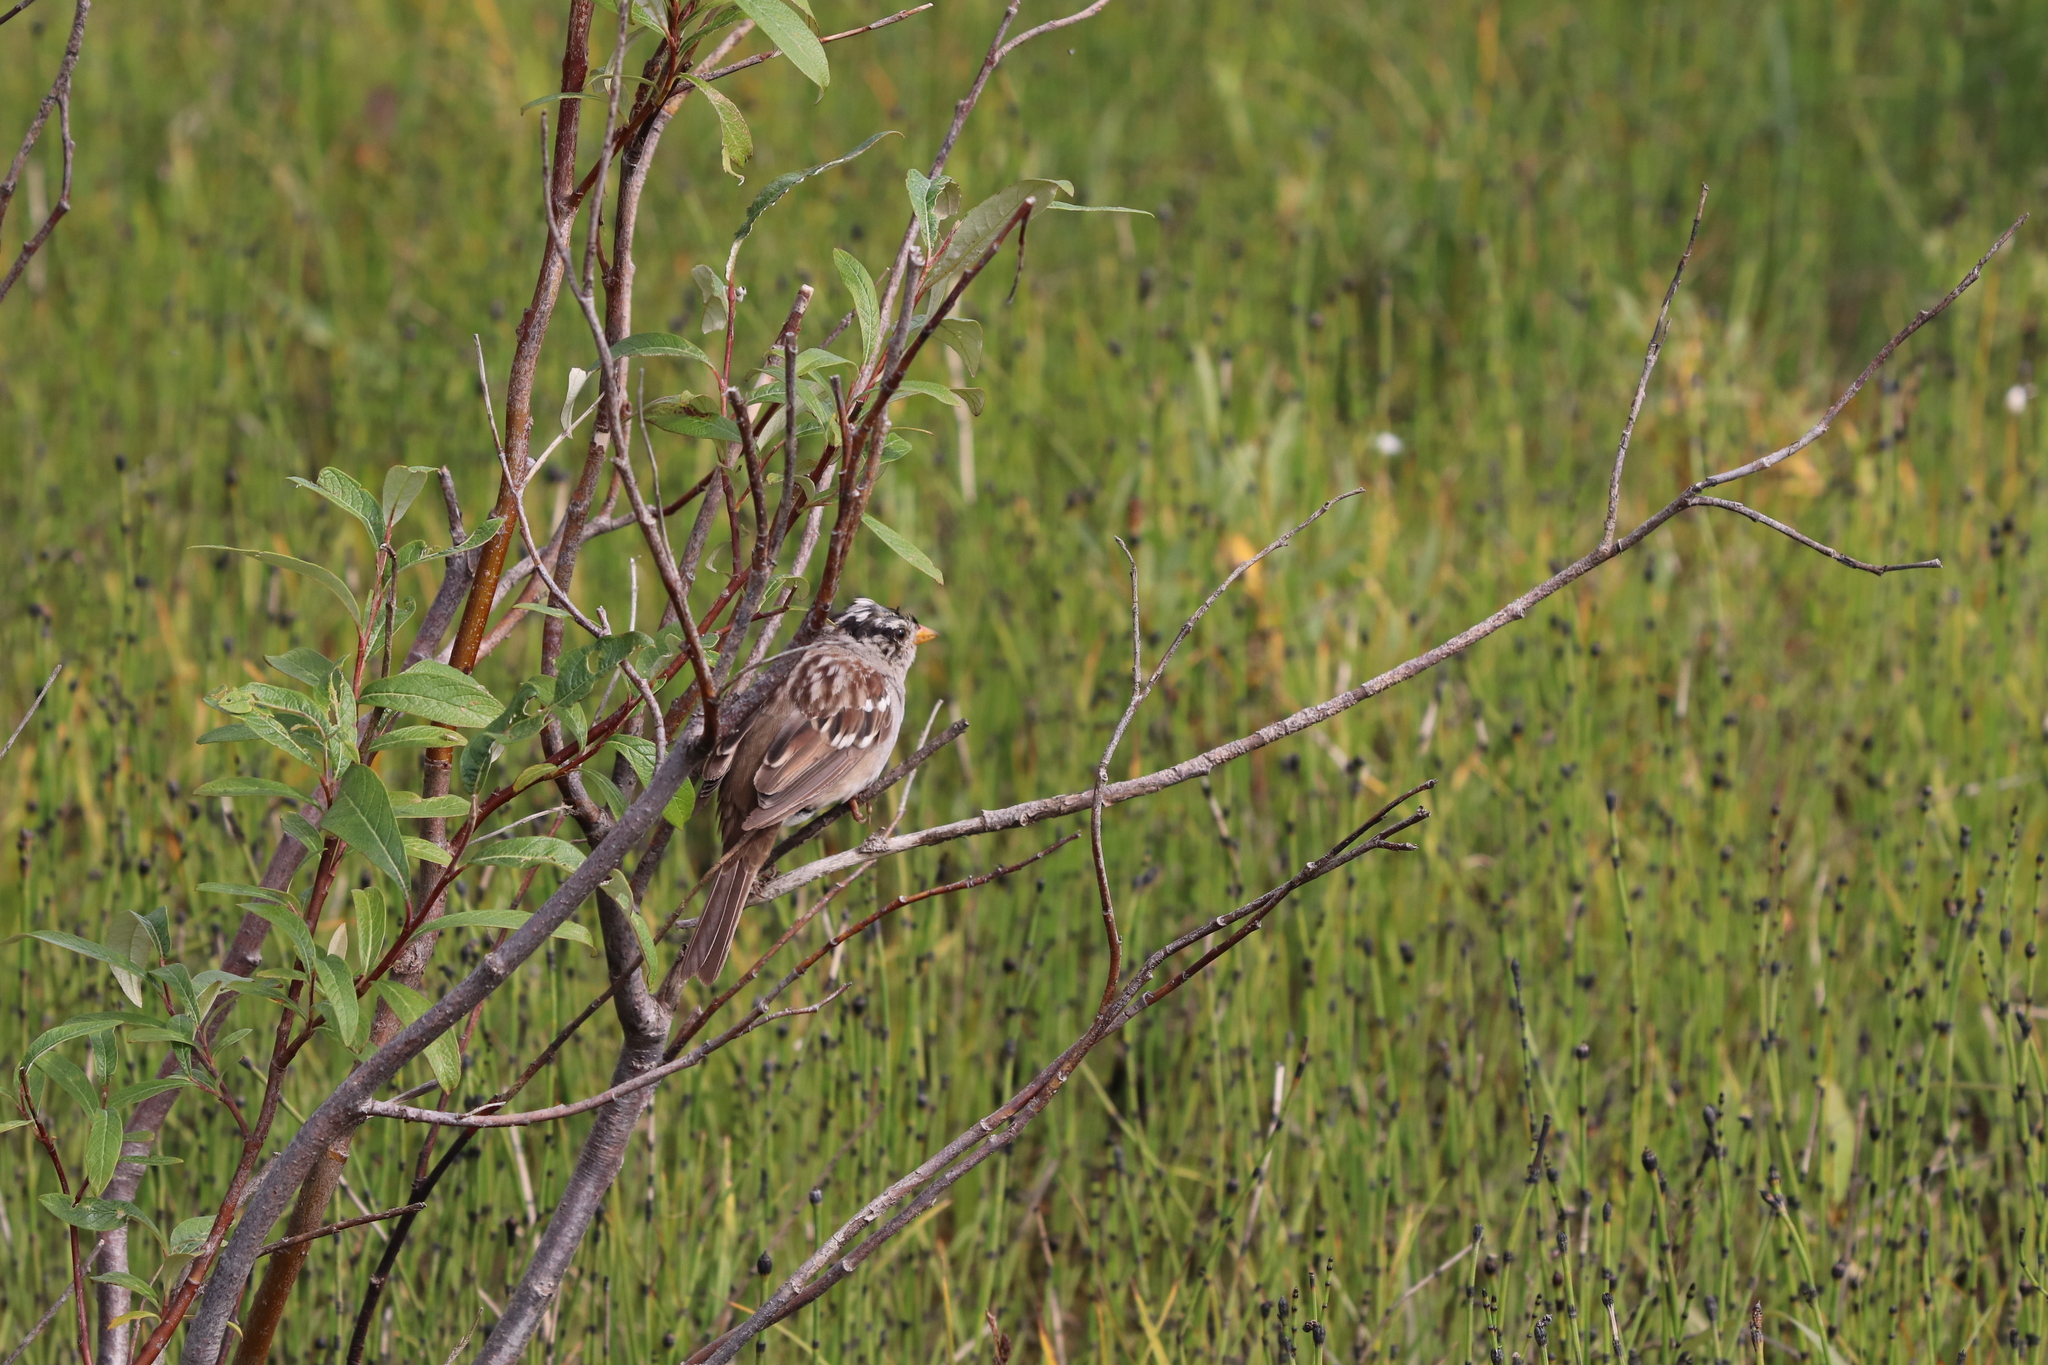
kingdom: Animalia
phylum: Chordata
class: Aves
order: Passeriformes
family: Passerellidae
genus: Zonotrichia
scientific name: Zonotrichia leucophrys
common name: White-crowned sparrow
